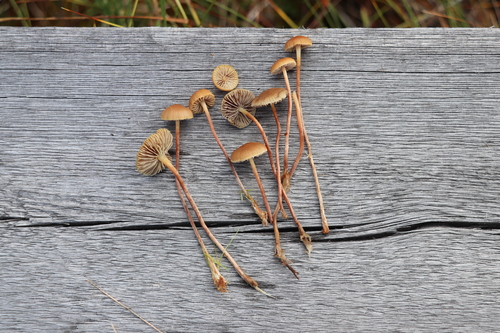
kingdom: Fungi
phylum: Basidiomycota
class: Agaricomycetes
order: Agaricales
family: Strophariaceae
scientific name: Strophariaceae
